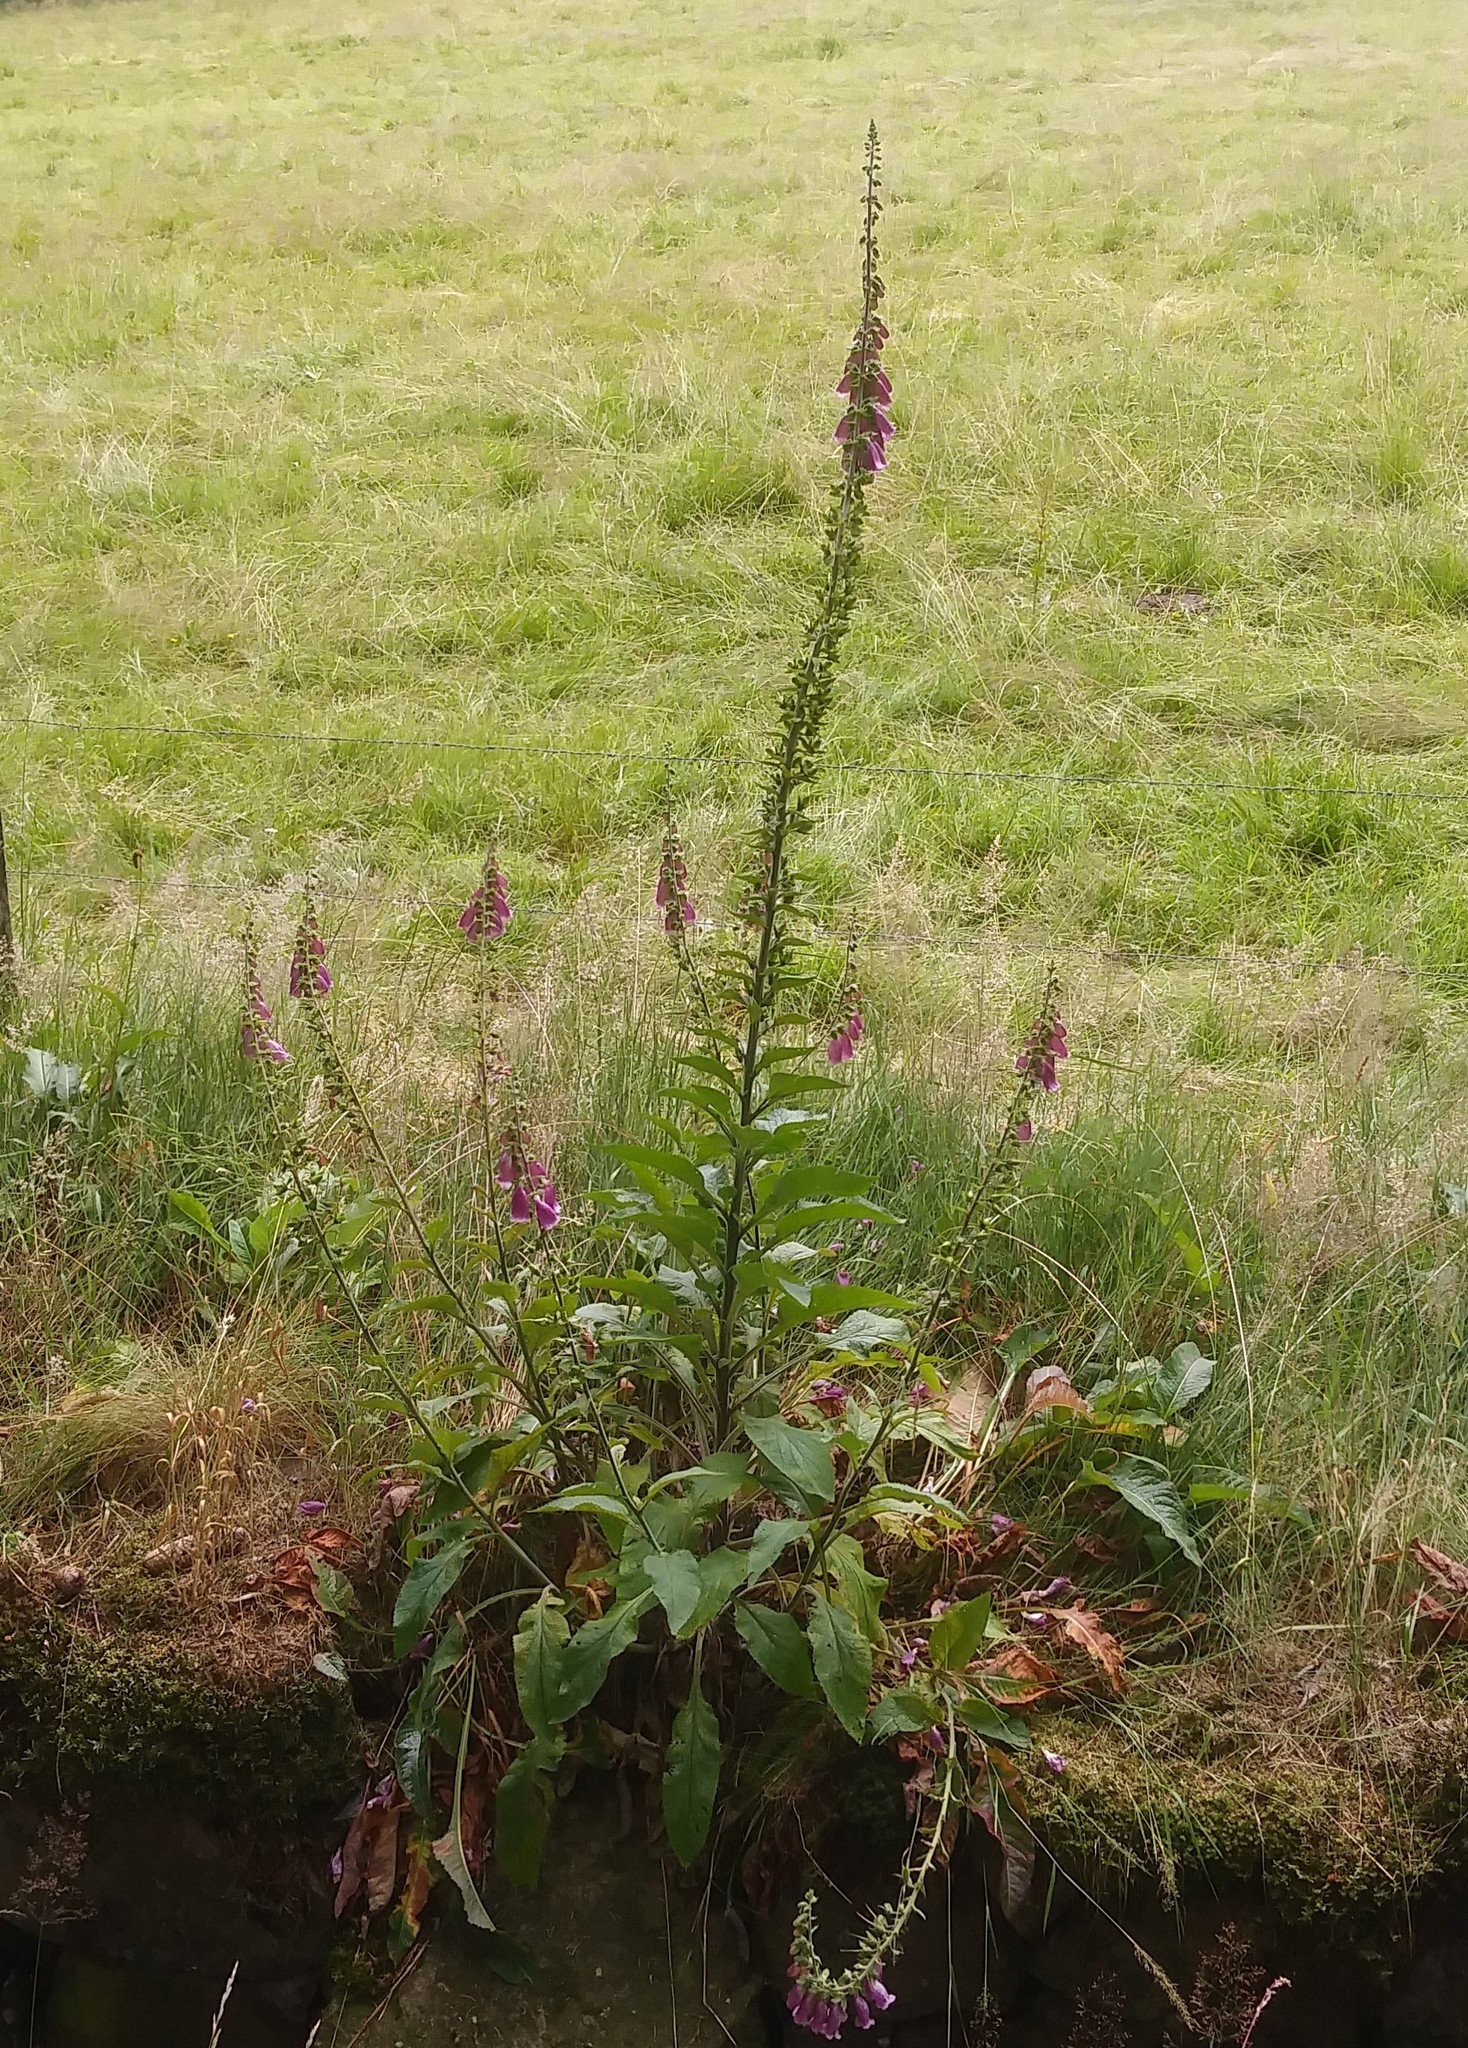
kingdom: Plantae
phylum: Tracheophyta
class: Magnoliopsida
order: Lamiales
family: Plantaginaceae
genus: Digitalis
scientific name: Digitalis purpurea
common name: Foxglove
